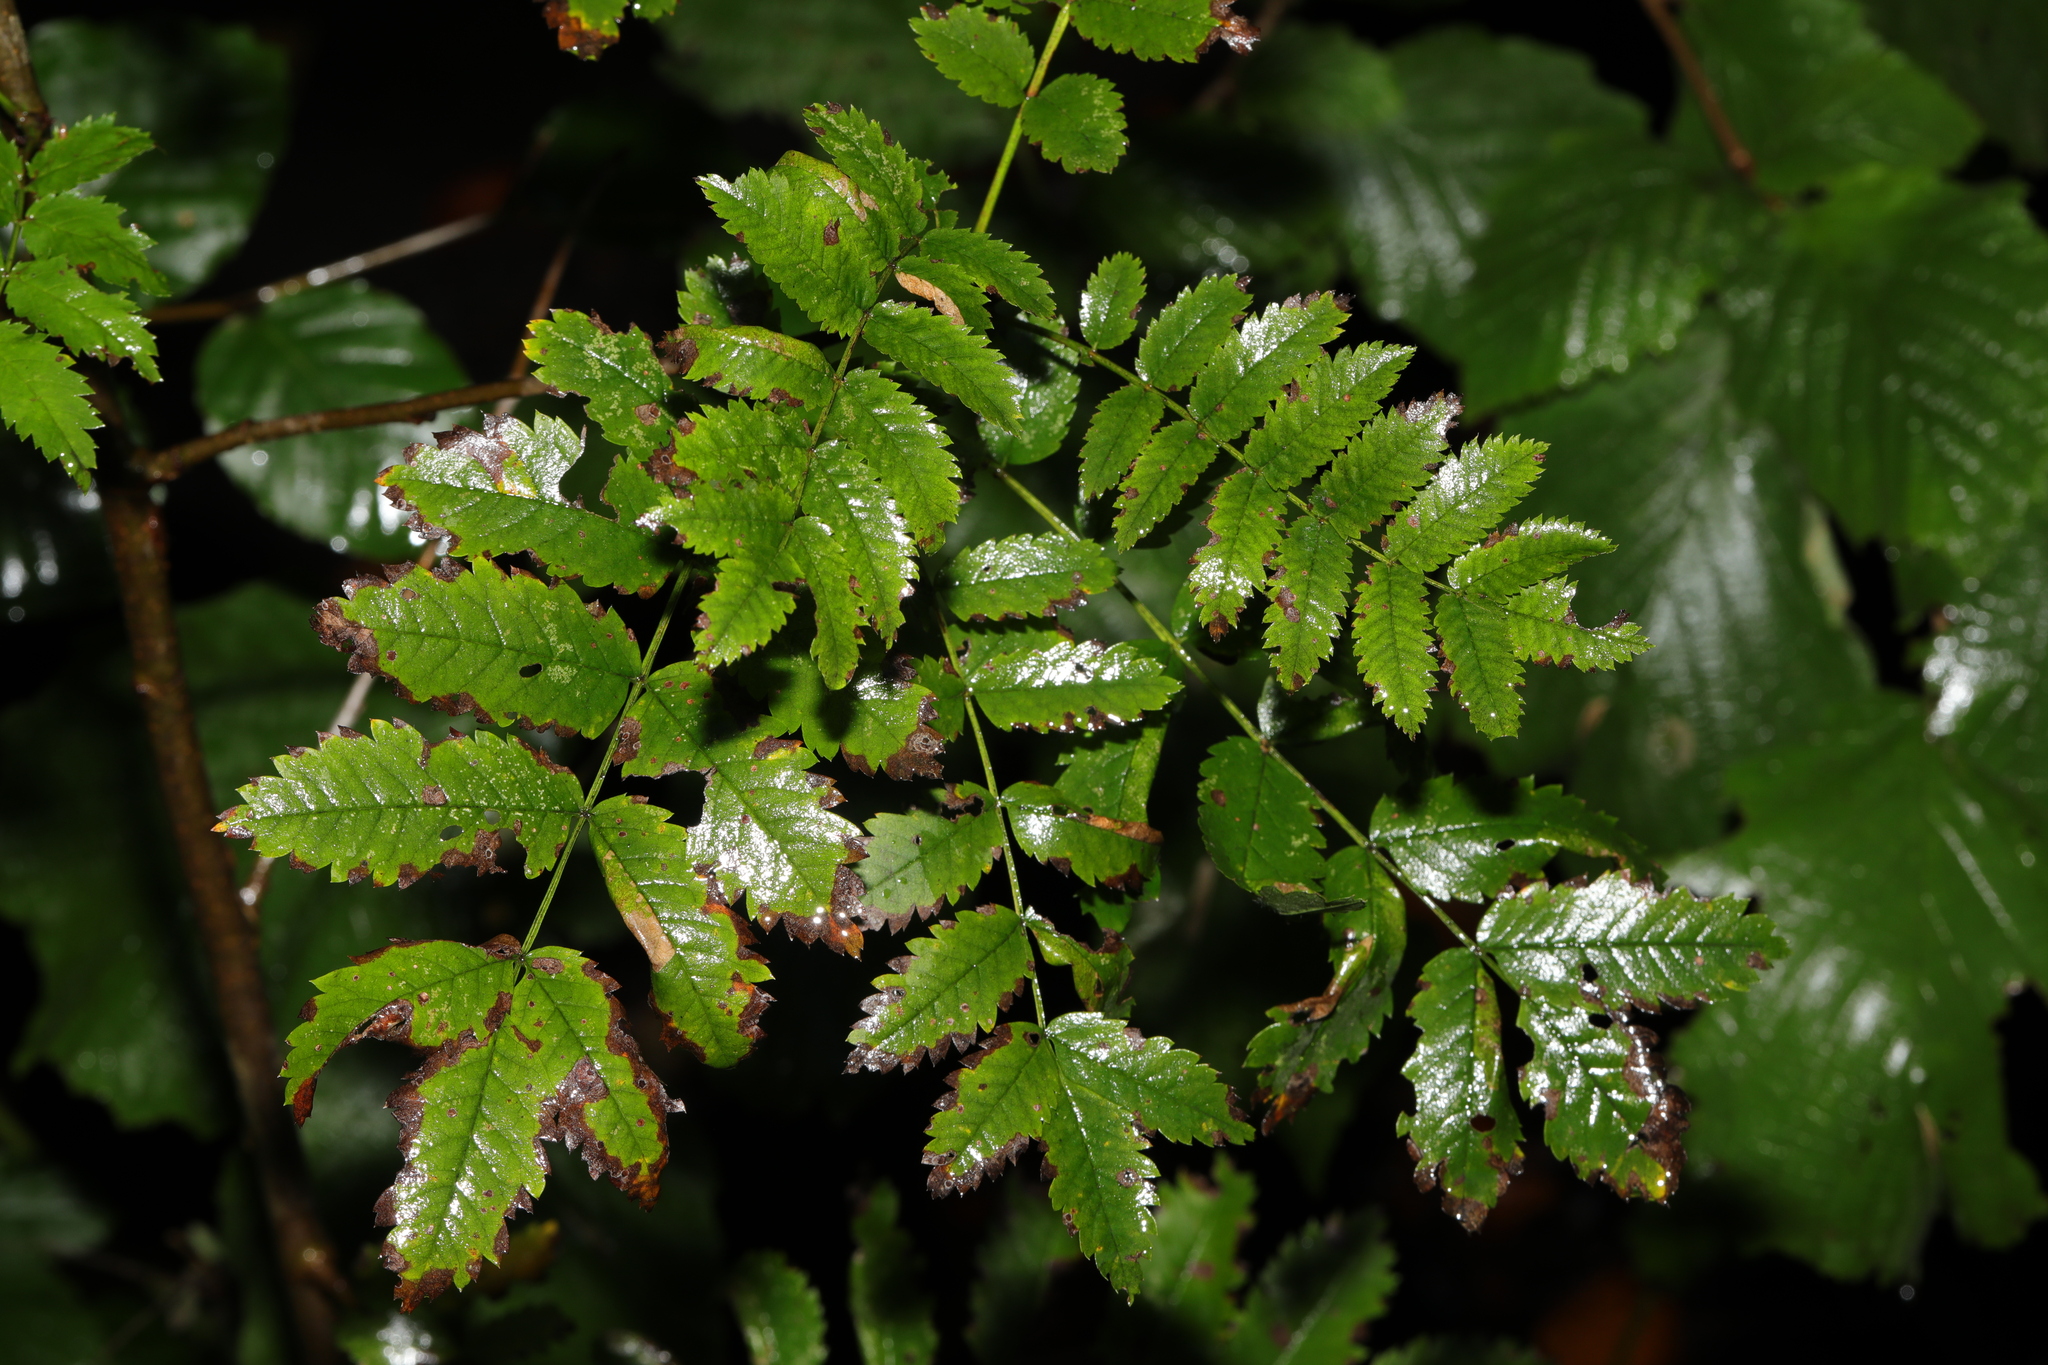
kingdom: Plantae
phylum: Tracheophyta
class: Magnoliopsida
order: Rosales
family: Rosaceae
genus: Sorbus
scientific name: Sorbus aucuparia
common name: Rowan
